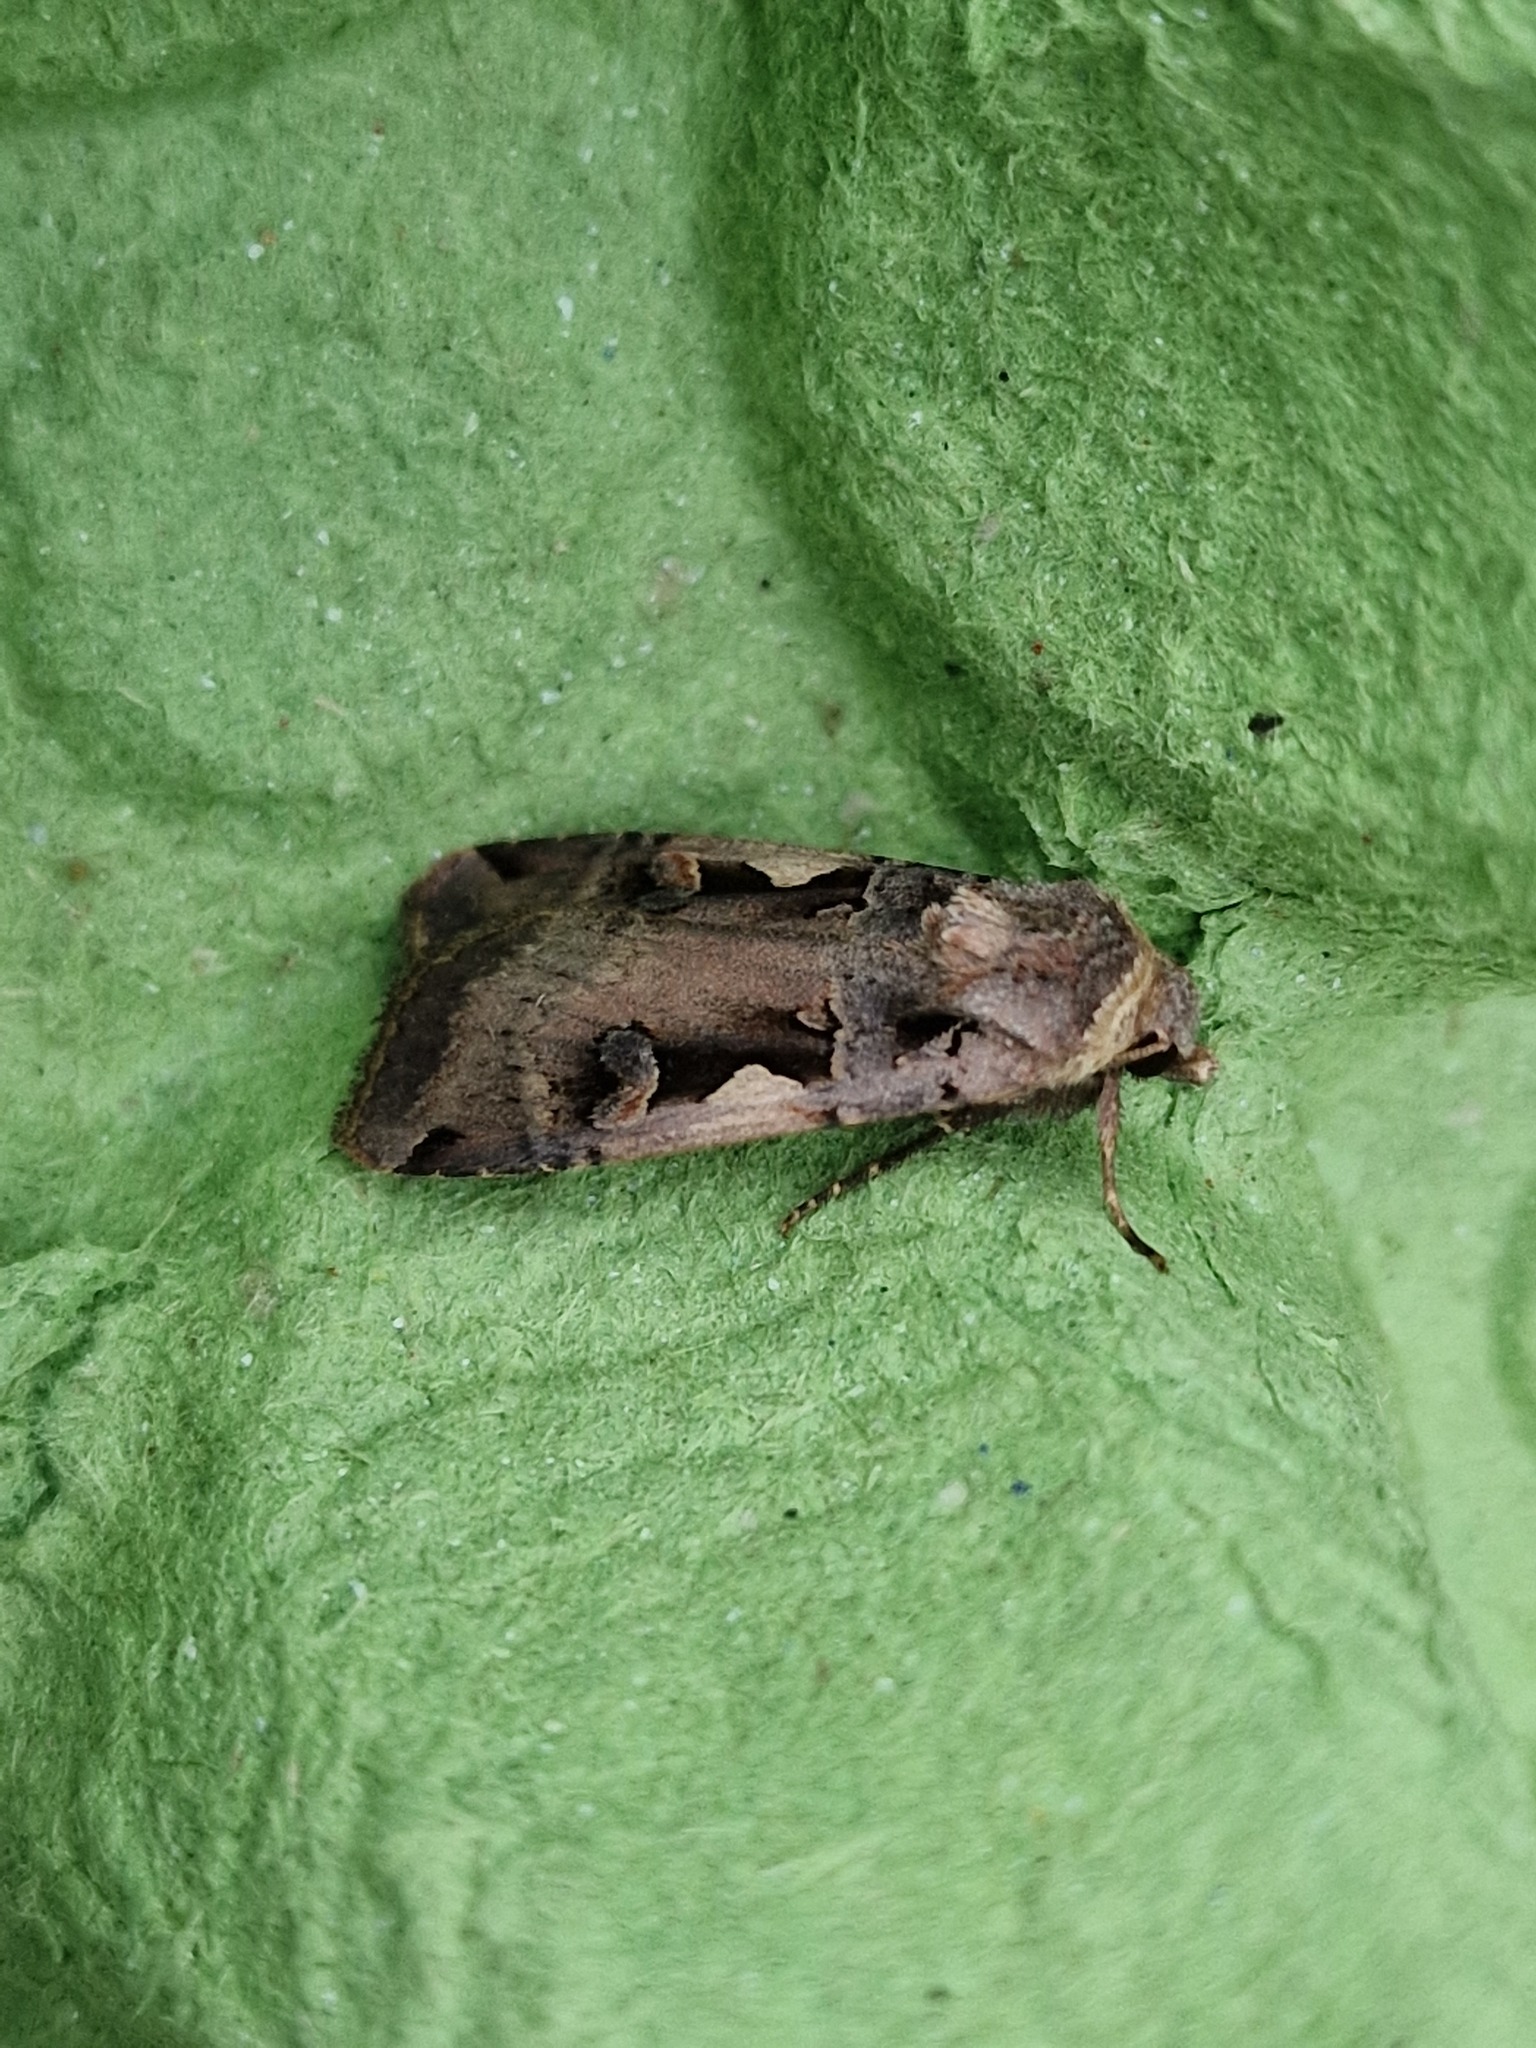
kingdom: Animalia
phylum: Arthropoda
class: Insecta
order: Lepidoptera
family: Noctuidae
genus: Xestia
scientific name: Xestia c-nigrum
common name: Setaceous hebrew character
